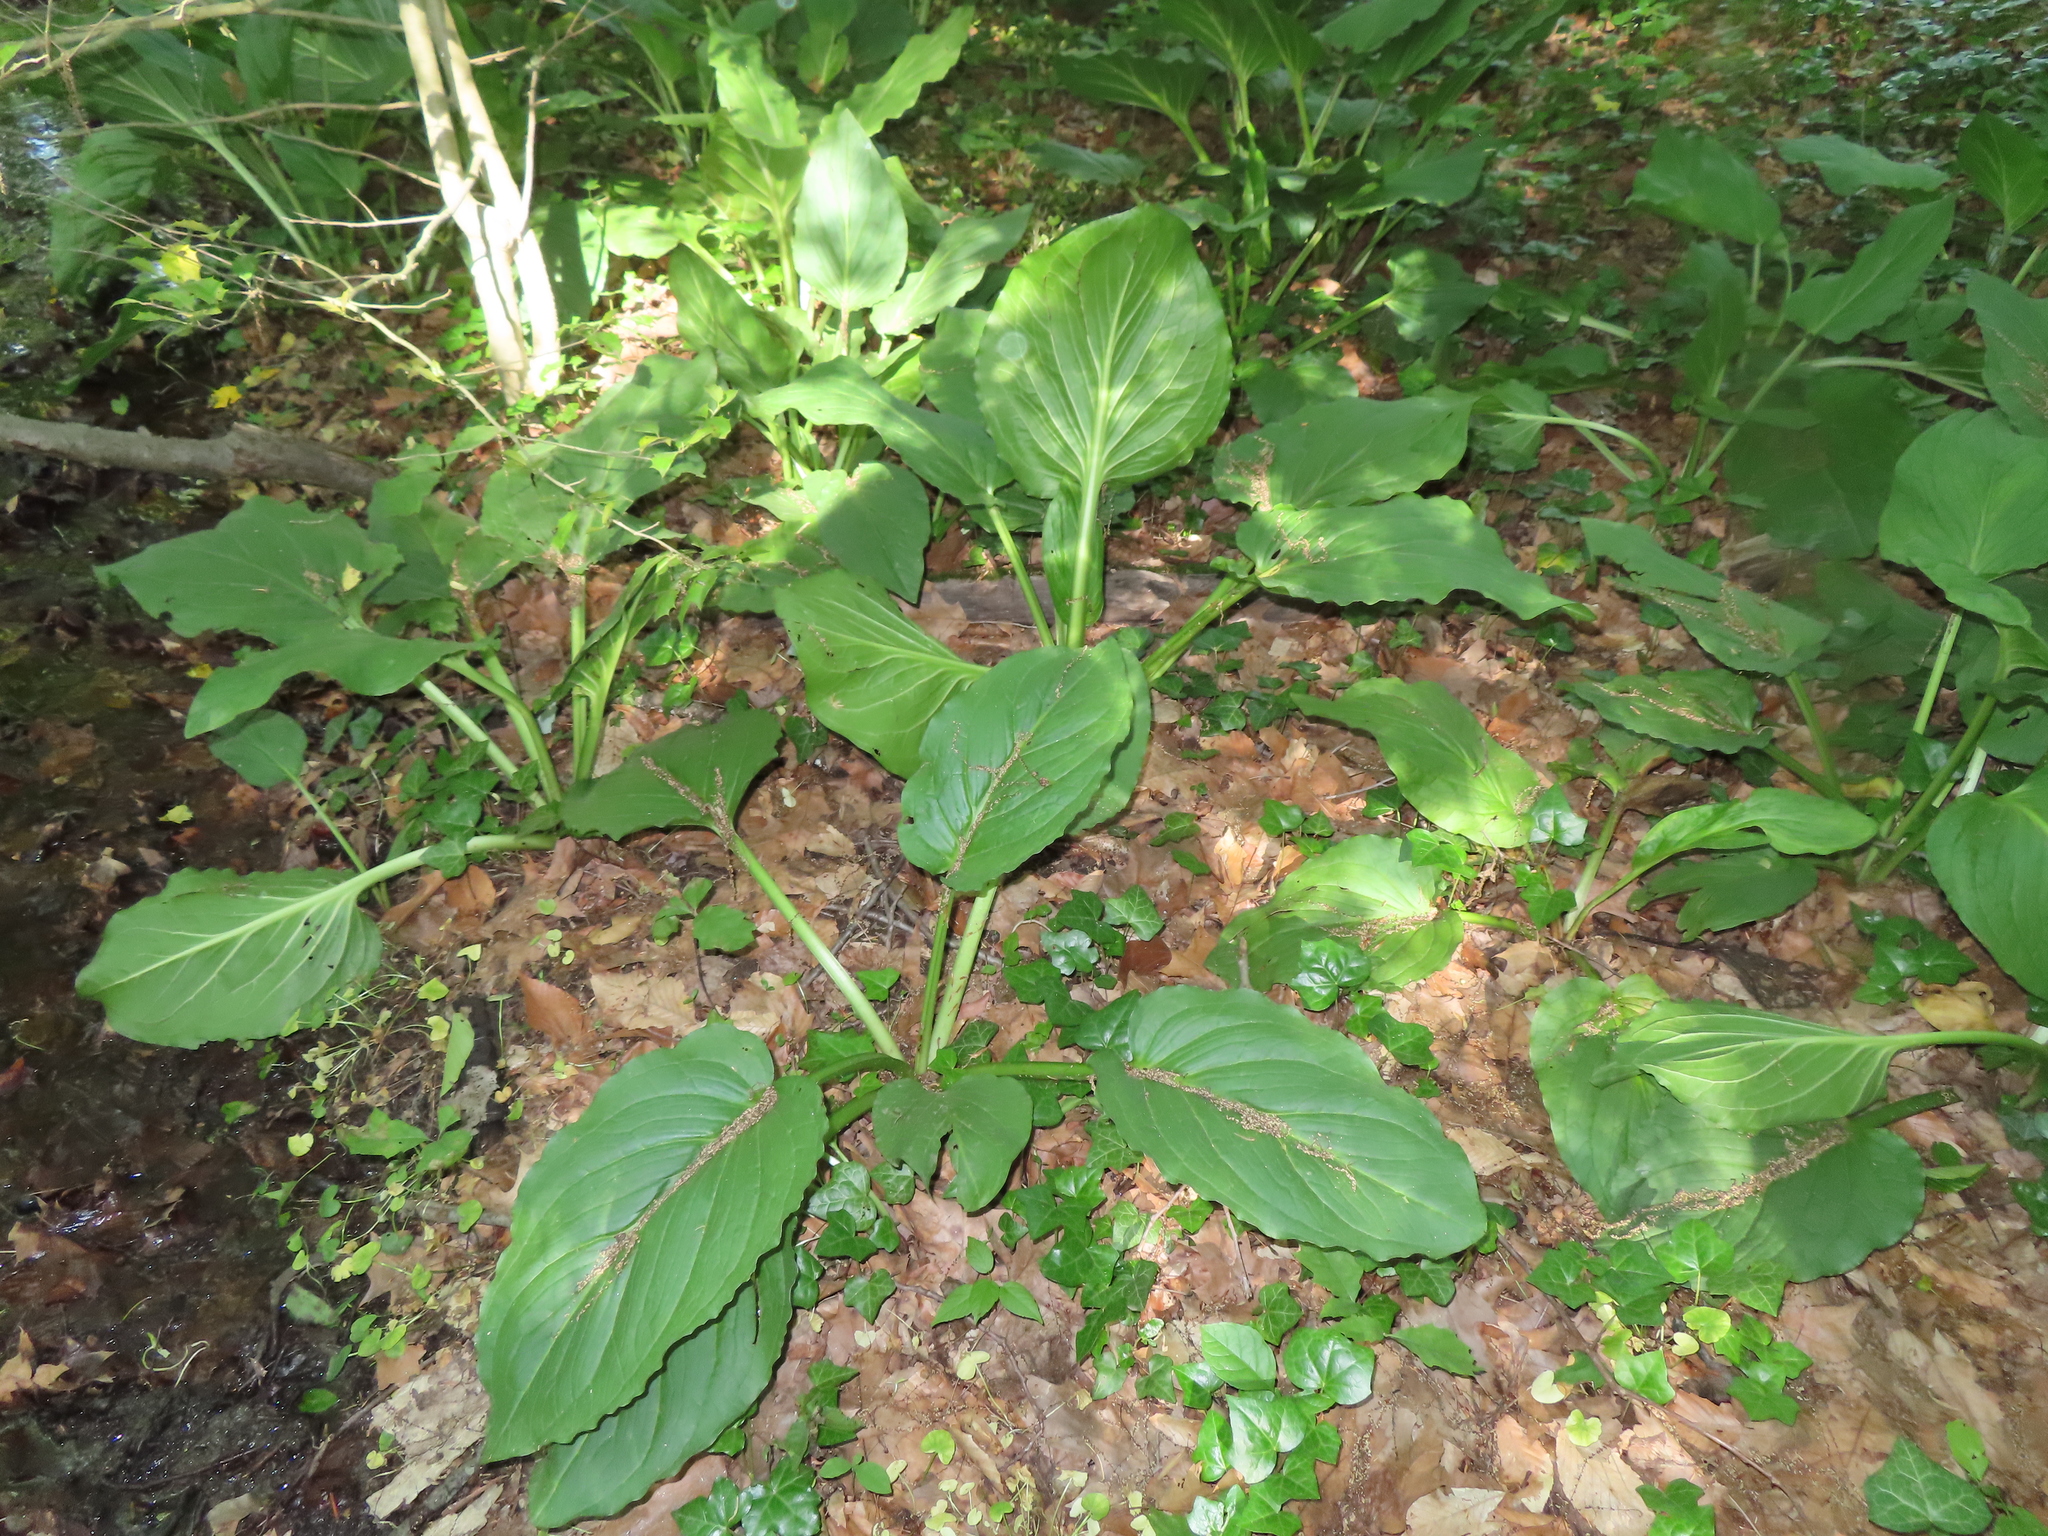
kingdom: Plantae
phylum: Tracheophyta
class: Liliopsida
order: Alismatales
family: Araceae
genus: Symplocarpus
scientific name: Symplocarpus foetidus
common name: Eastern skunk cabbage
